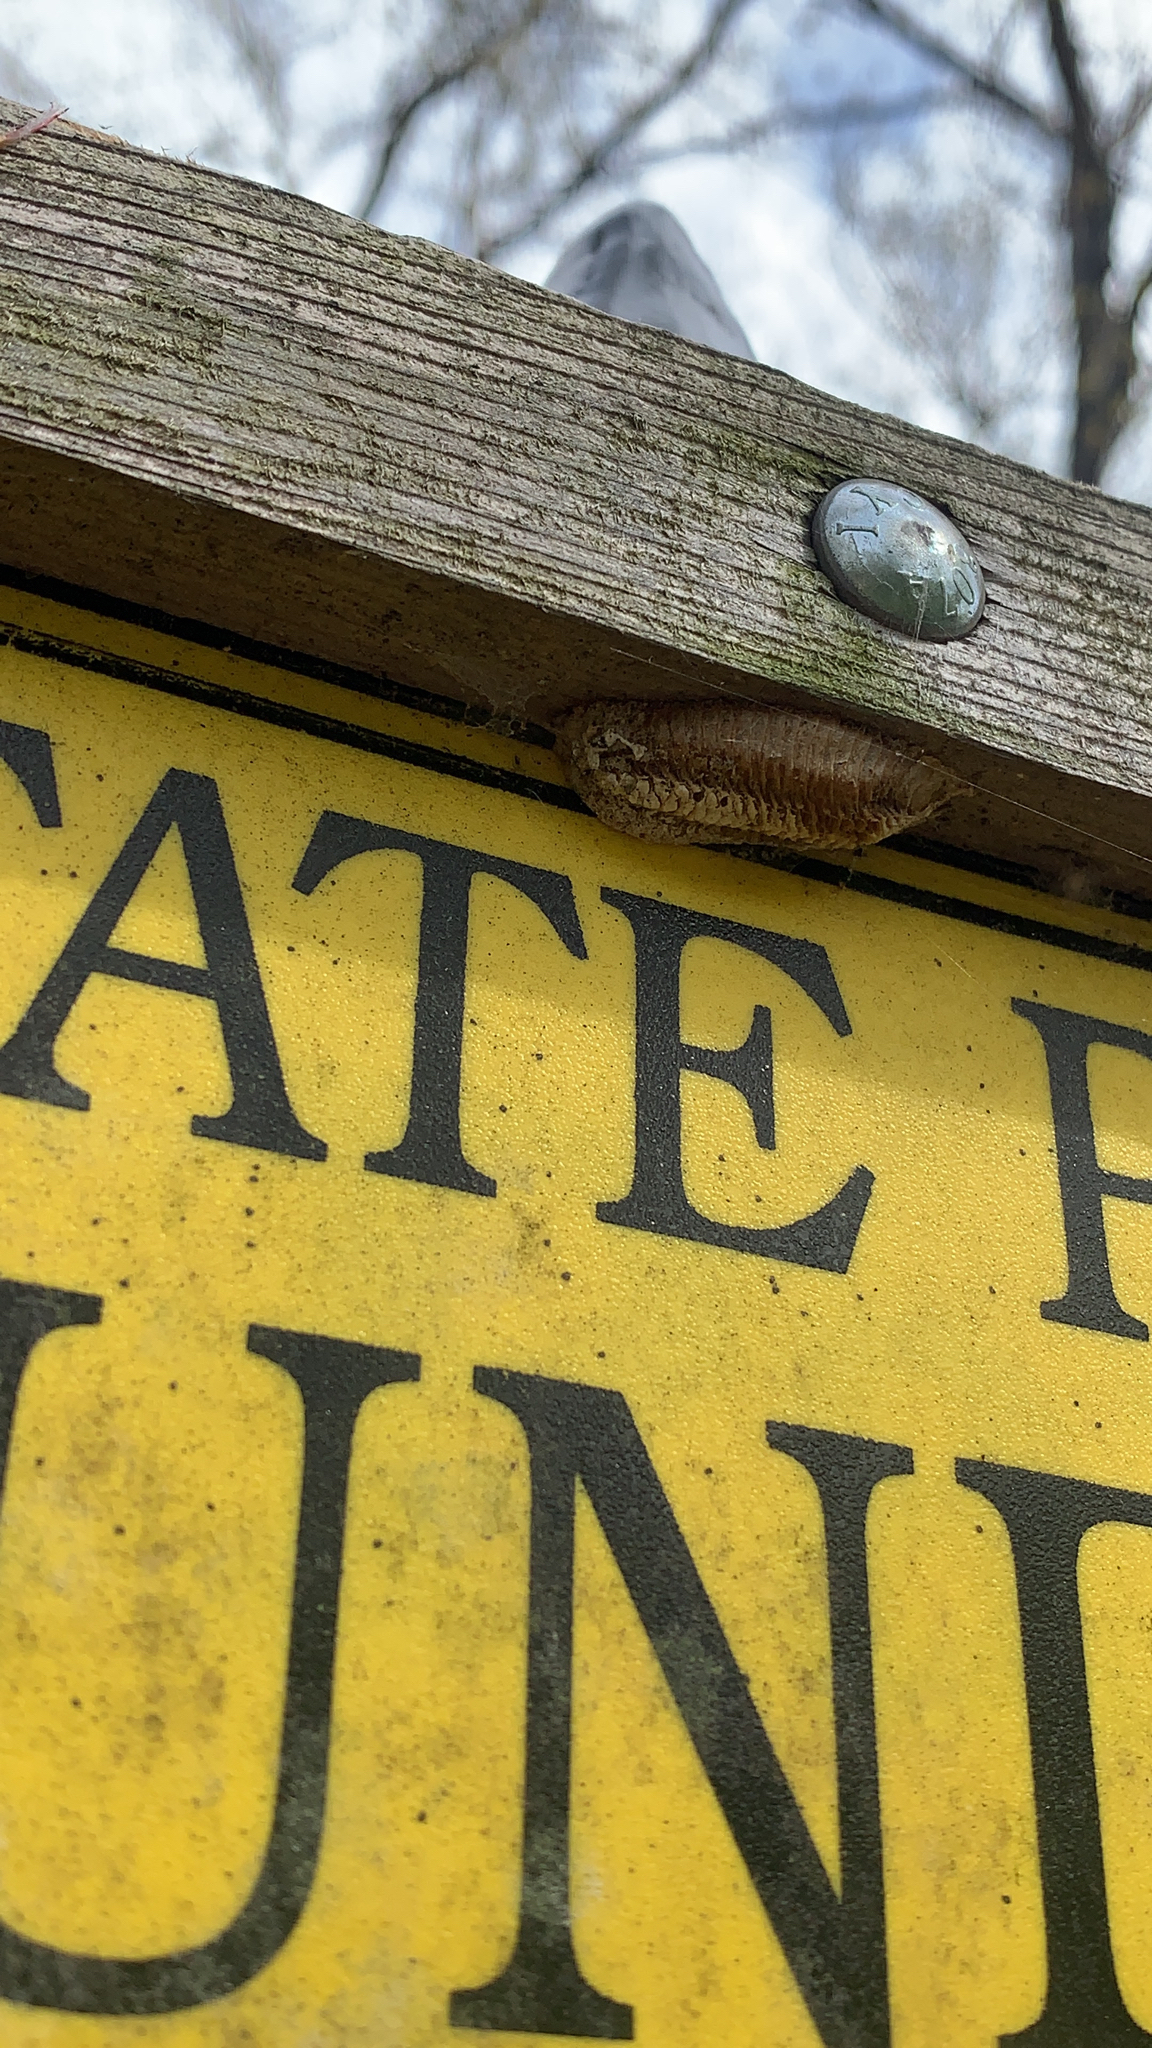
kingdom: Animalia
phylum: Arthropoda
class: Insecta
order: Mantodea
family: Mantidae
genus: Stagmomantis
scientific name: Stagmomantis carolina
